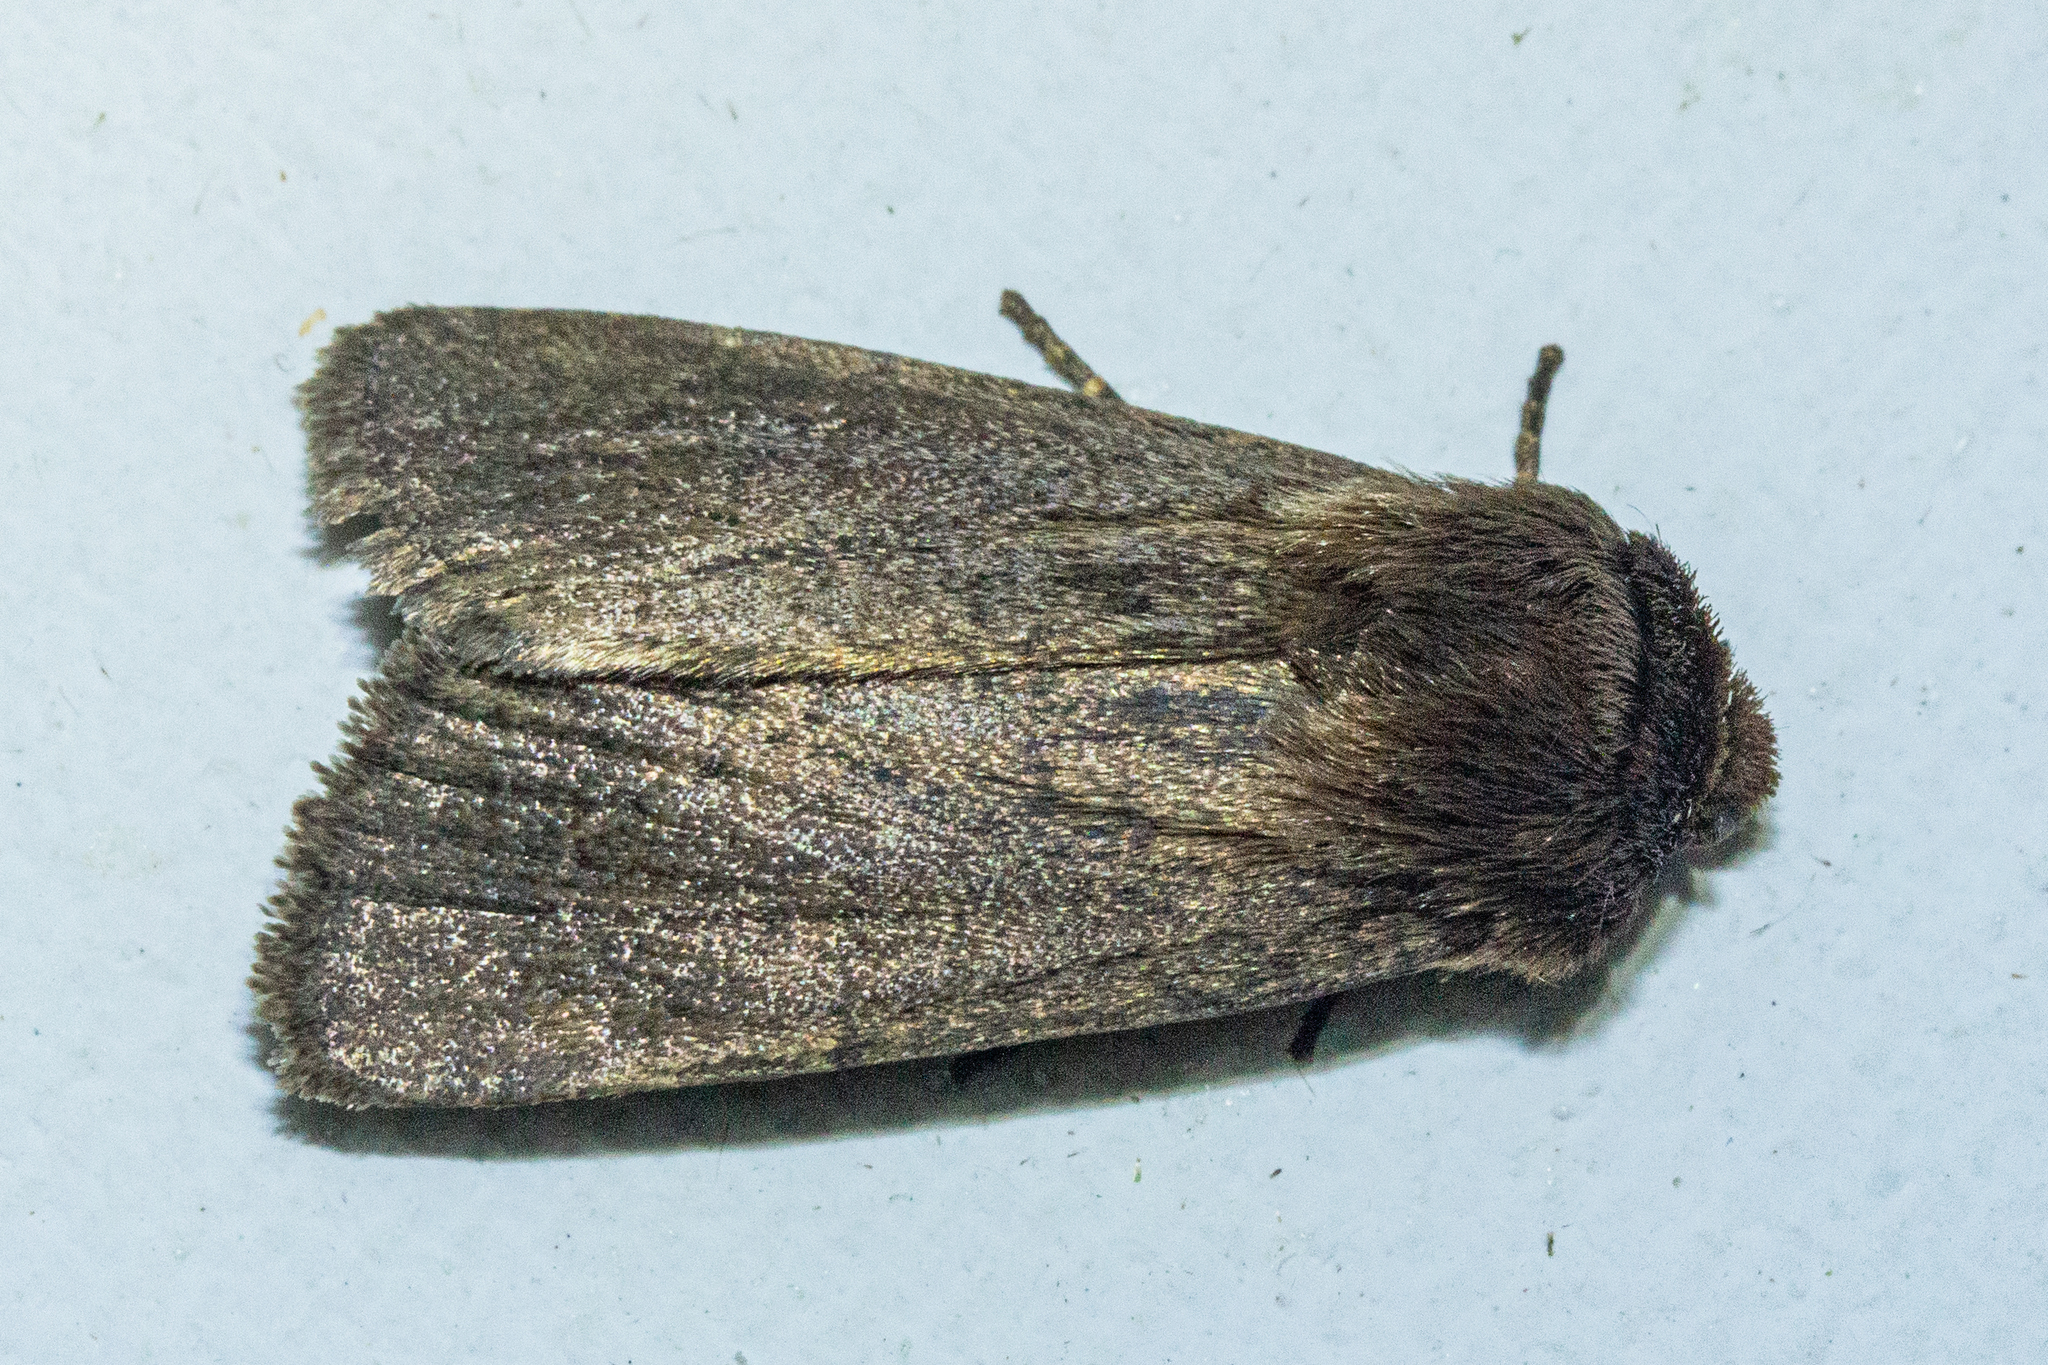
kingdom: Animalia
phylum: Arthropoda
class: Insecta
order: Lepidoptera
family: Noctuidae
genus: Bityla
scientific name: Bityla defigurata
